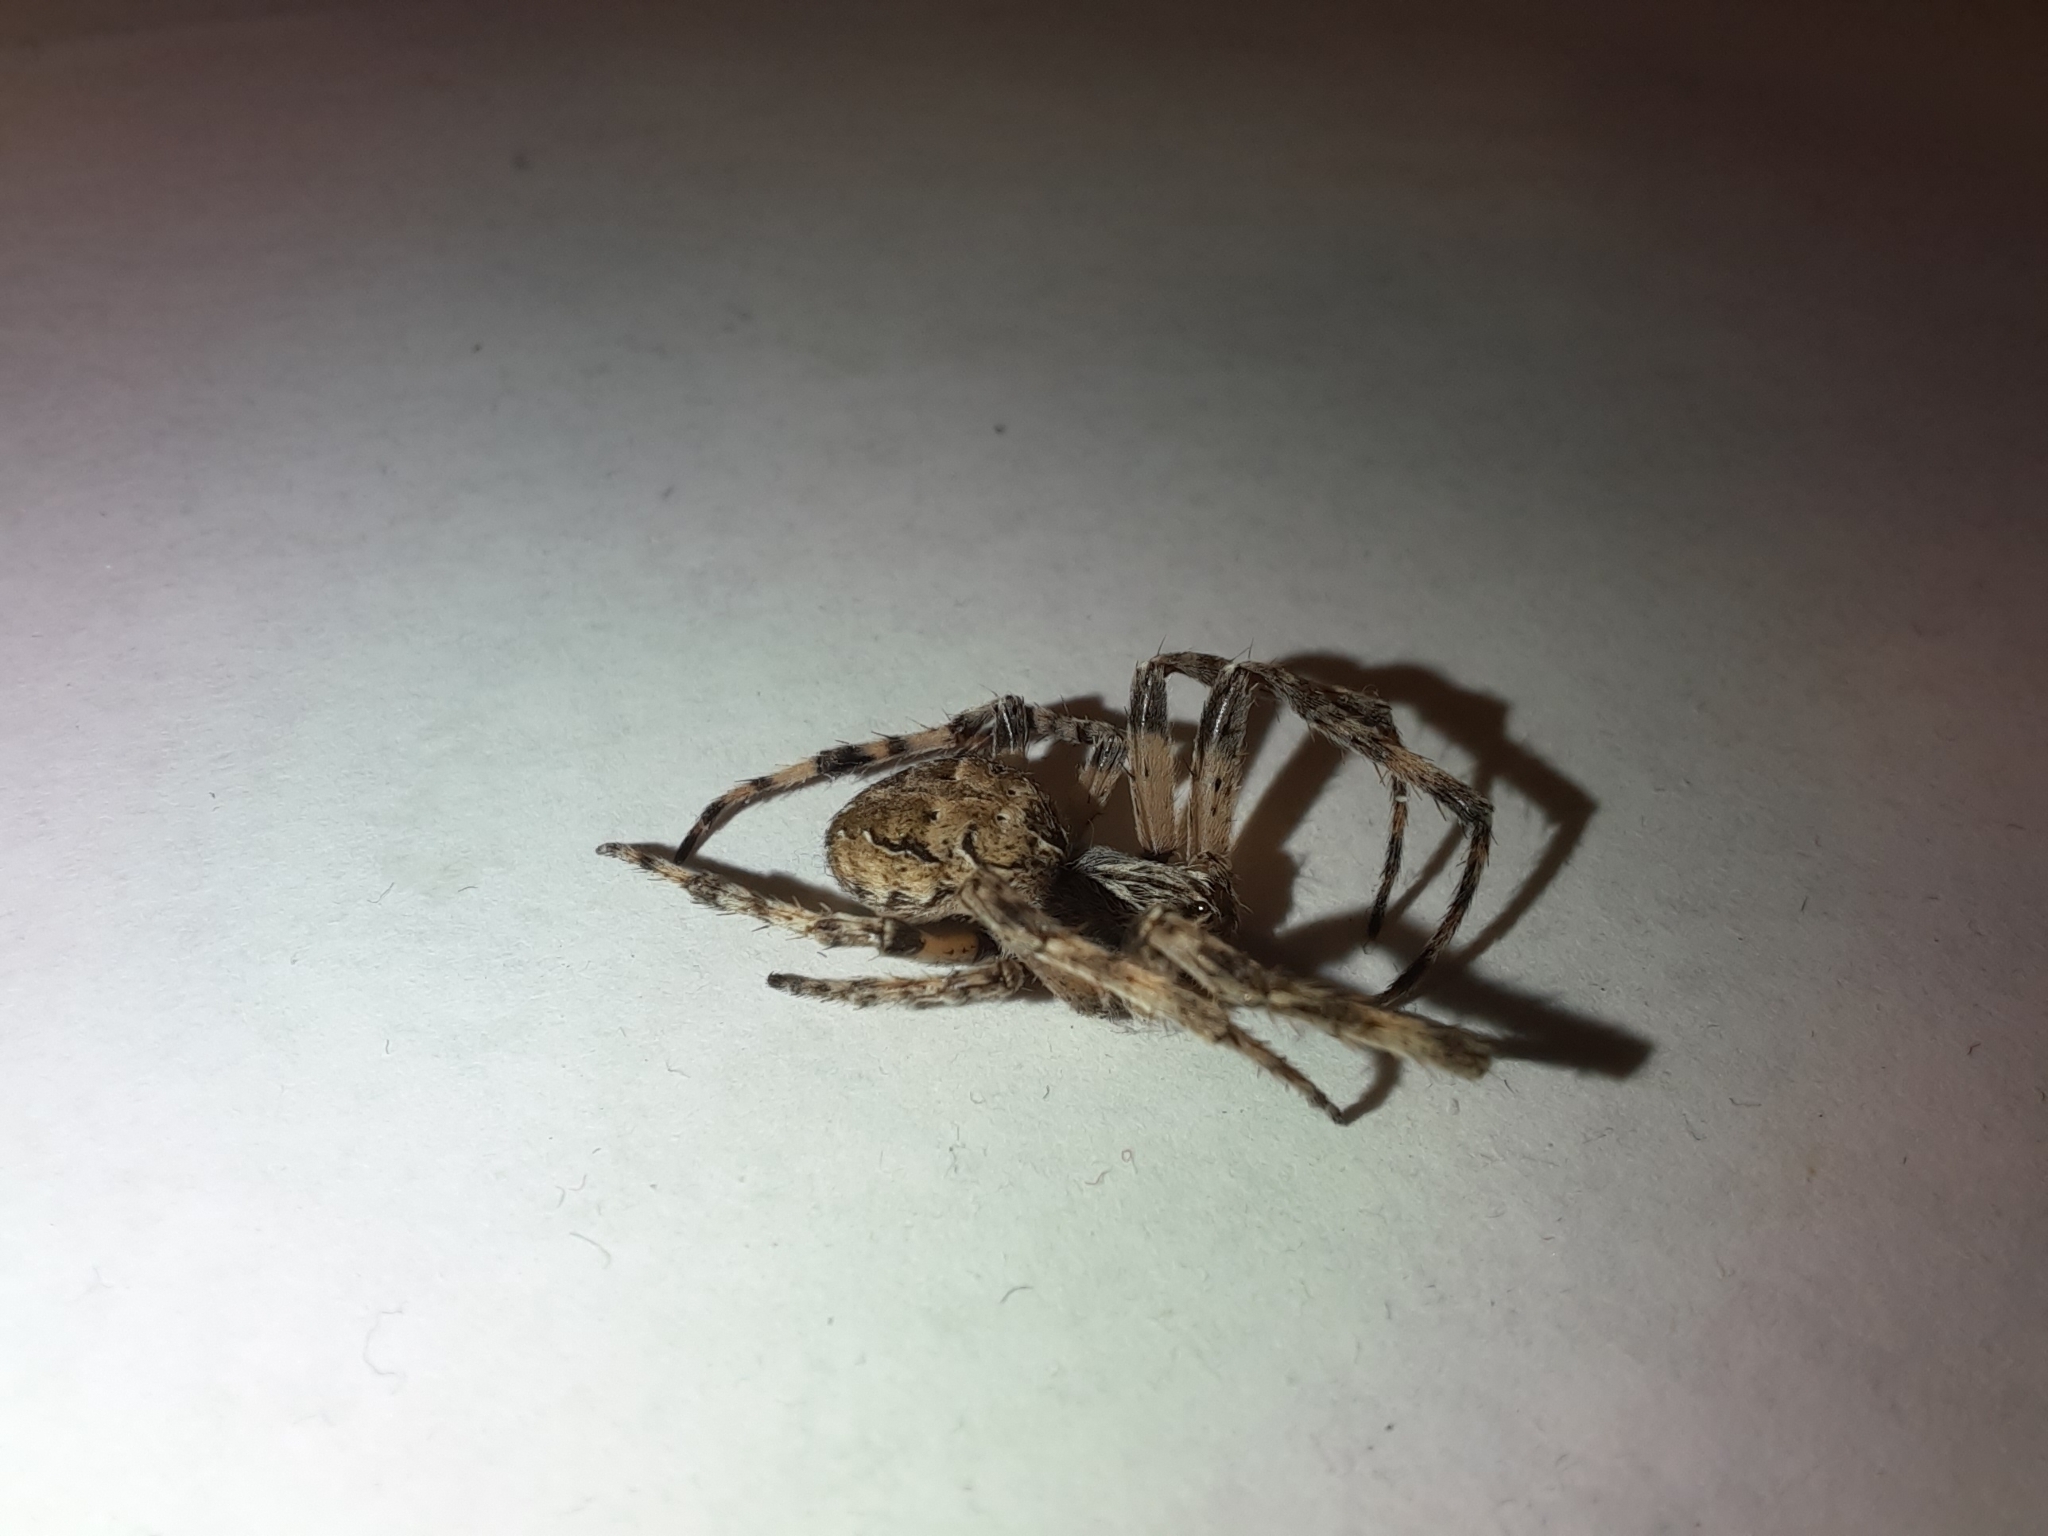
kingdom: Animalia
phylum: Arthropoda
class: Arachnida
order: Araneae
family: Araneidae
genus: Larinioides
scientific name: Larinioides sclopetarius
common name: Bridge orbweaver
